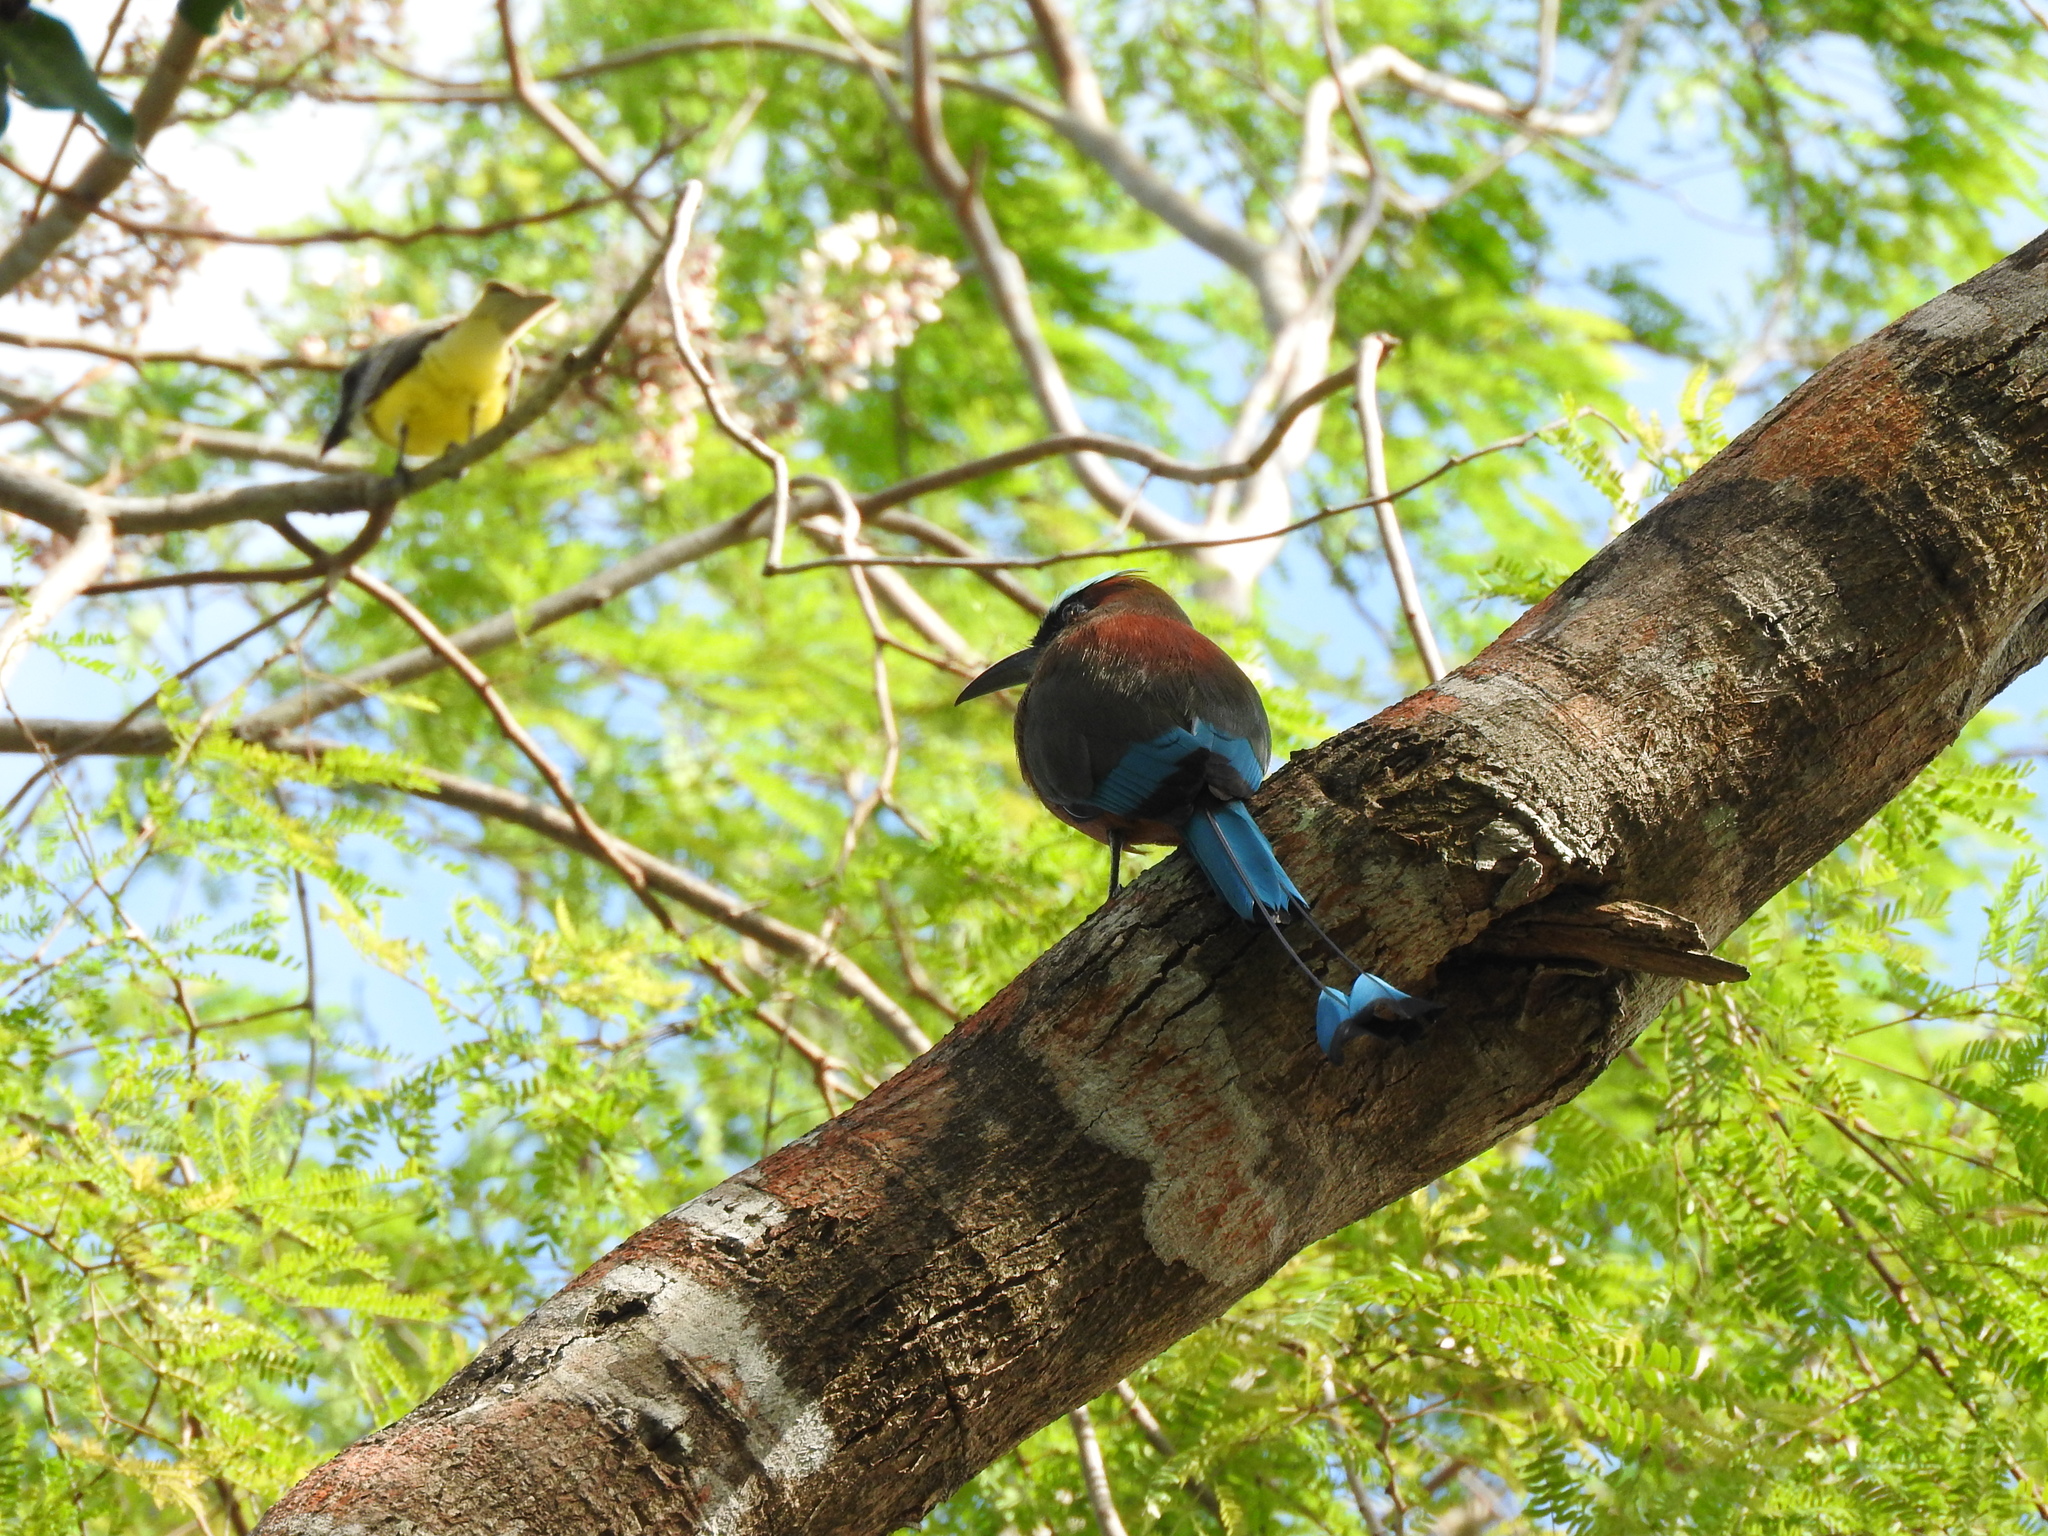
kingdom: Animalia
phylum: Chordata
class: Aves
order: Coraciiformes
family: Momotidae
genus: Eumomota
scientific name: Eumomota superciliosa
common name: Turquoise-browed motmot
